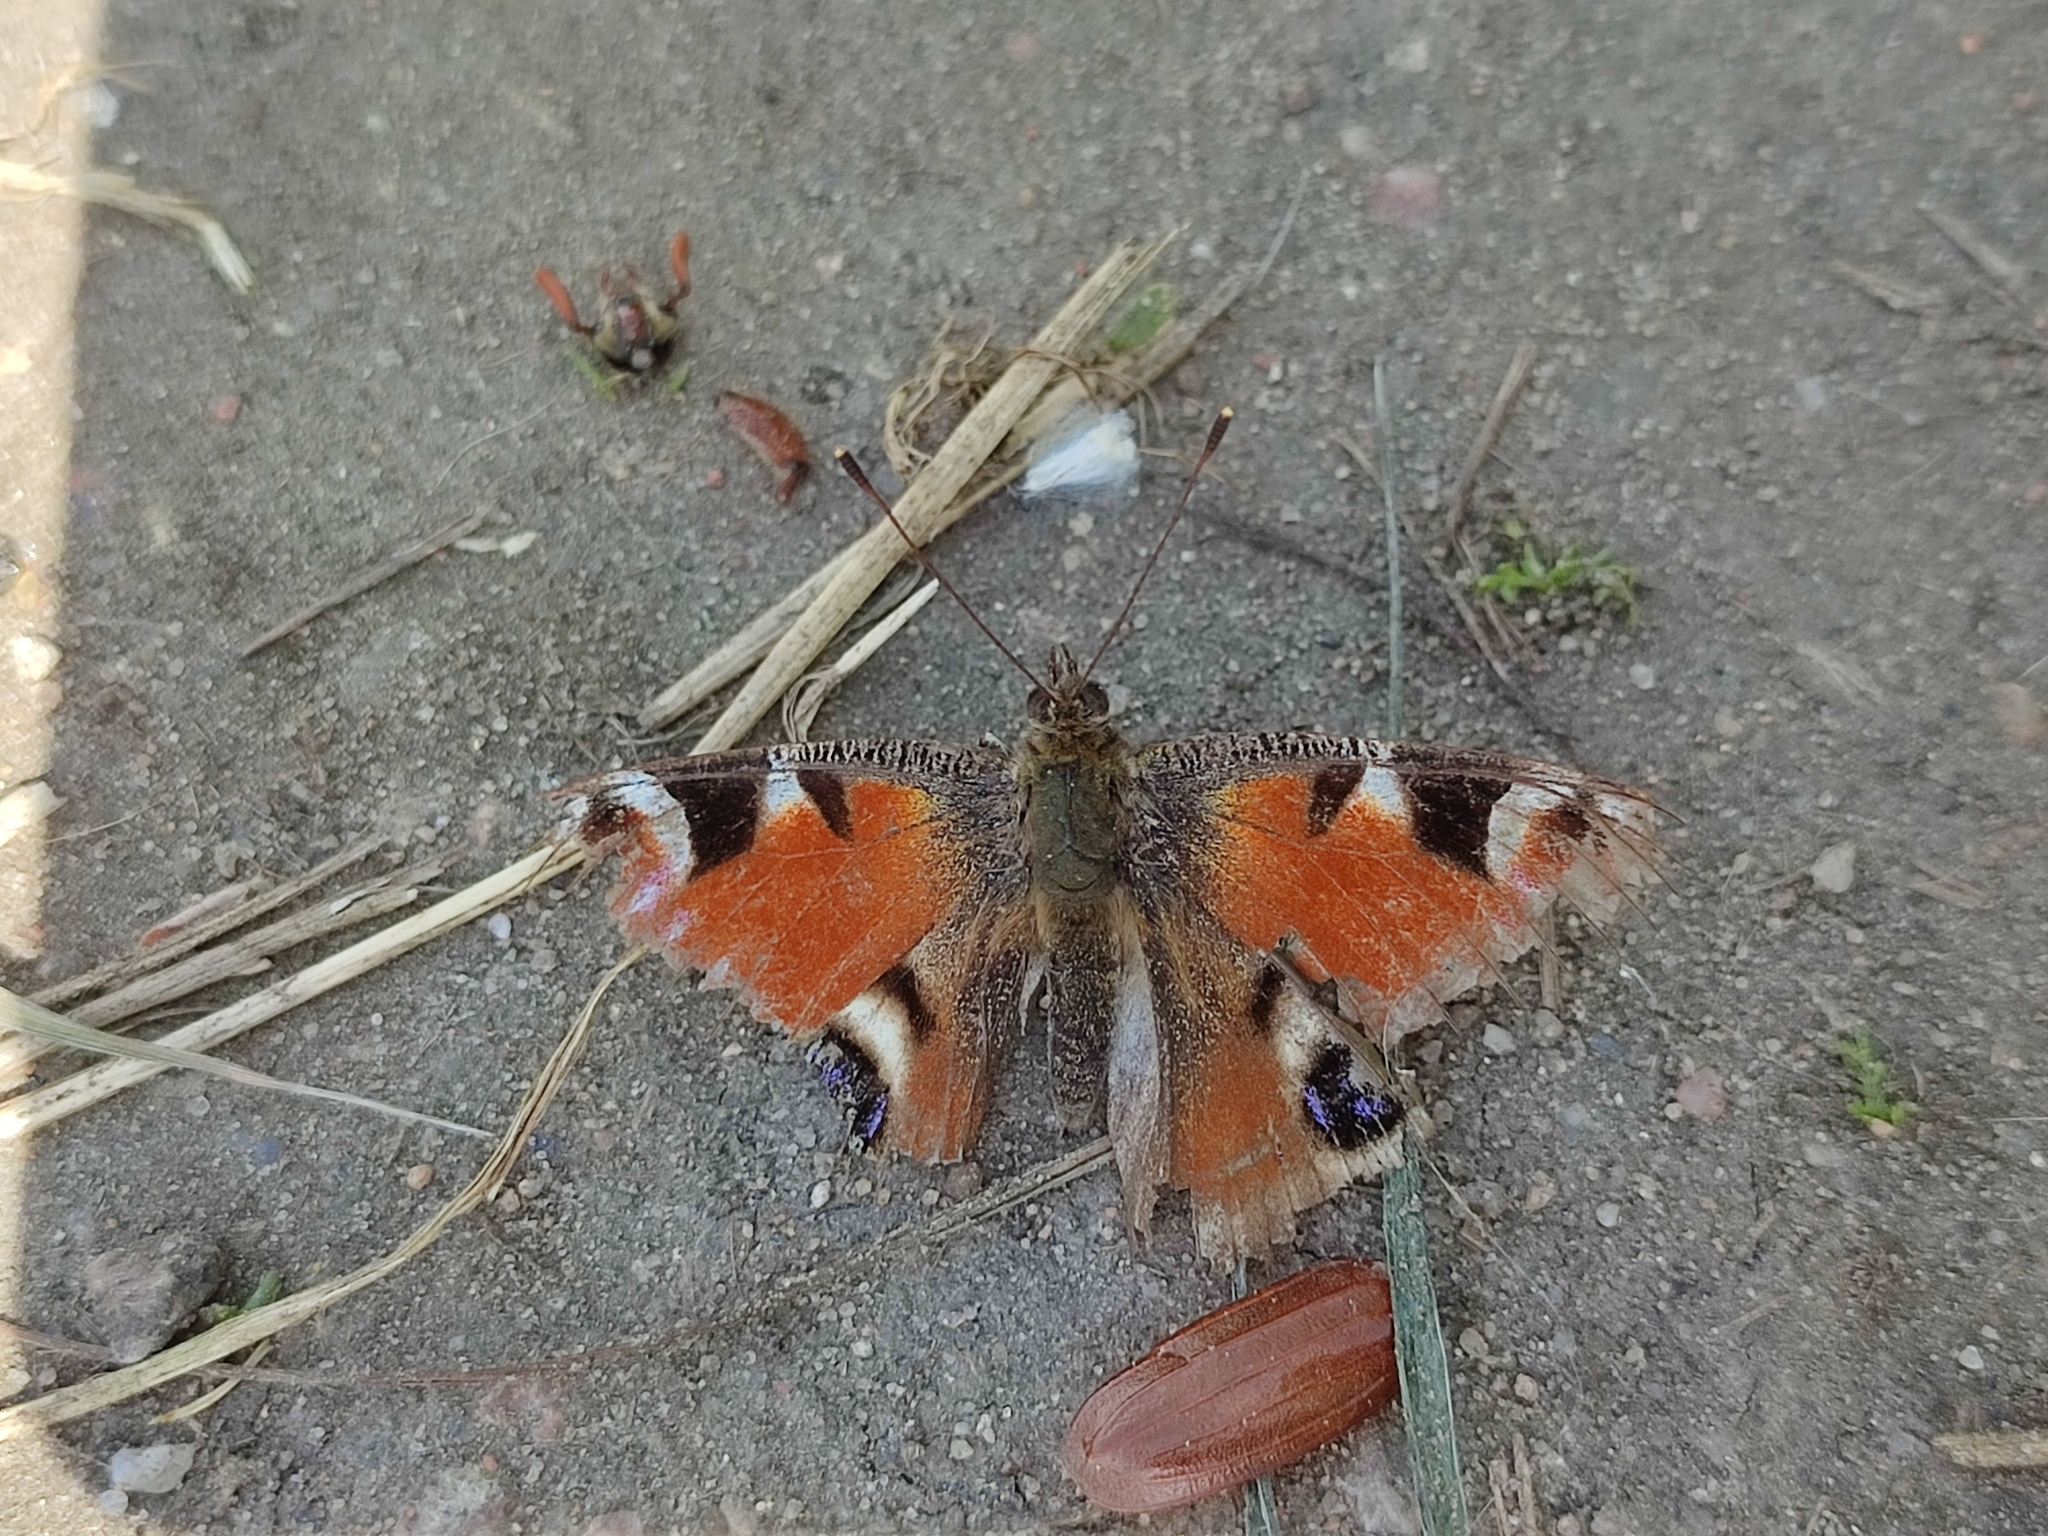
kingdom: Animalia
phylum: Arthropoda
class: Insecta
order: Lepidoptera
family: Nymphalidae
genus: Aglais
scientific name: Aglais io
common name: Peacock
